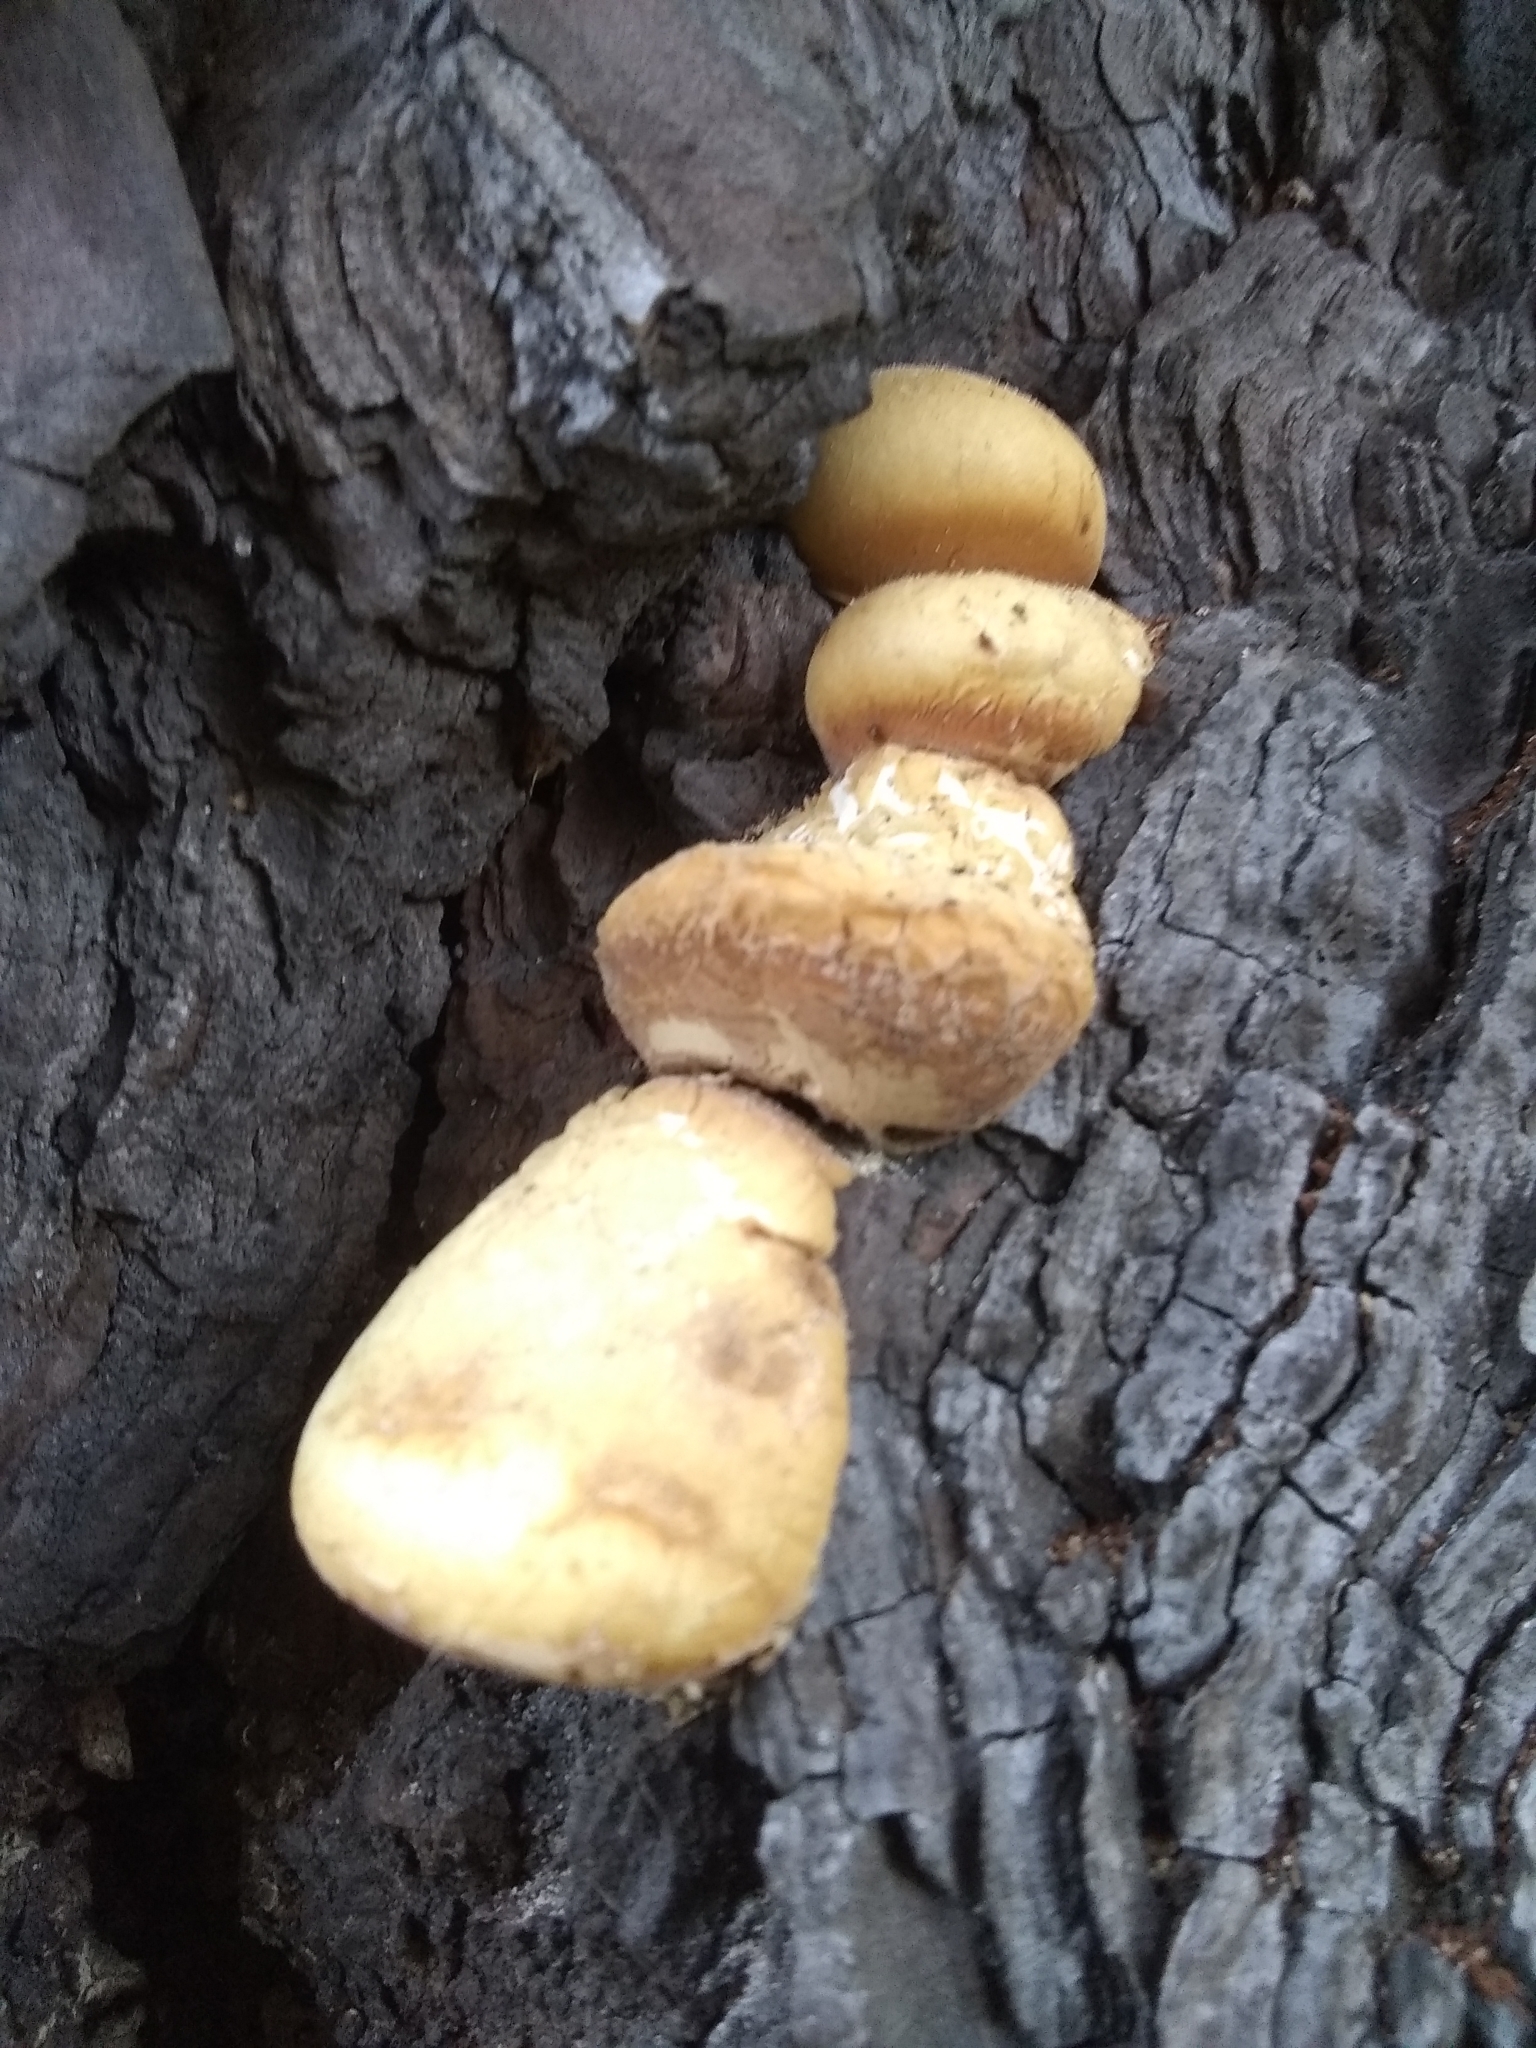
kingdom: Fungi
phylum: Basidiomycota
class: Agaricomycetes
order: Polyporales
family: Polyporaceae
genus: Cryptoporus
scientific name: Cryptoporus volvatus
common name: Veiled polypore
